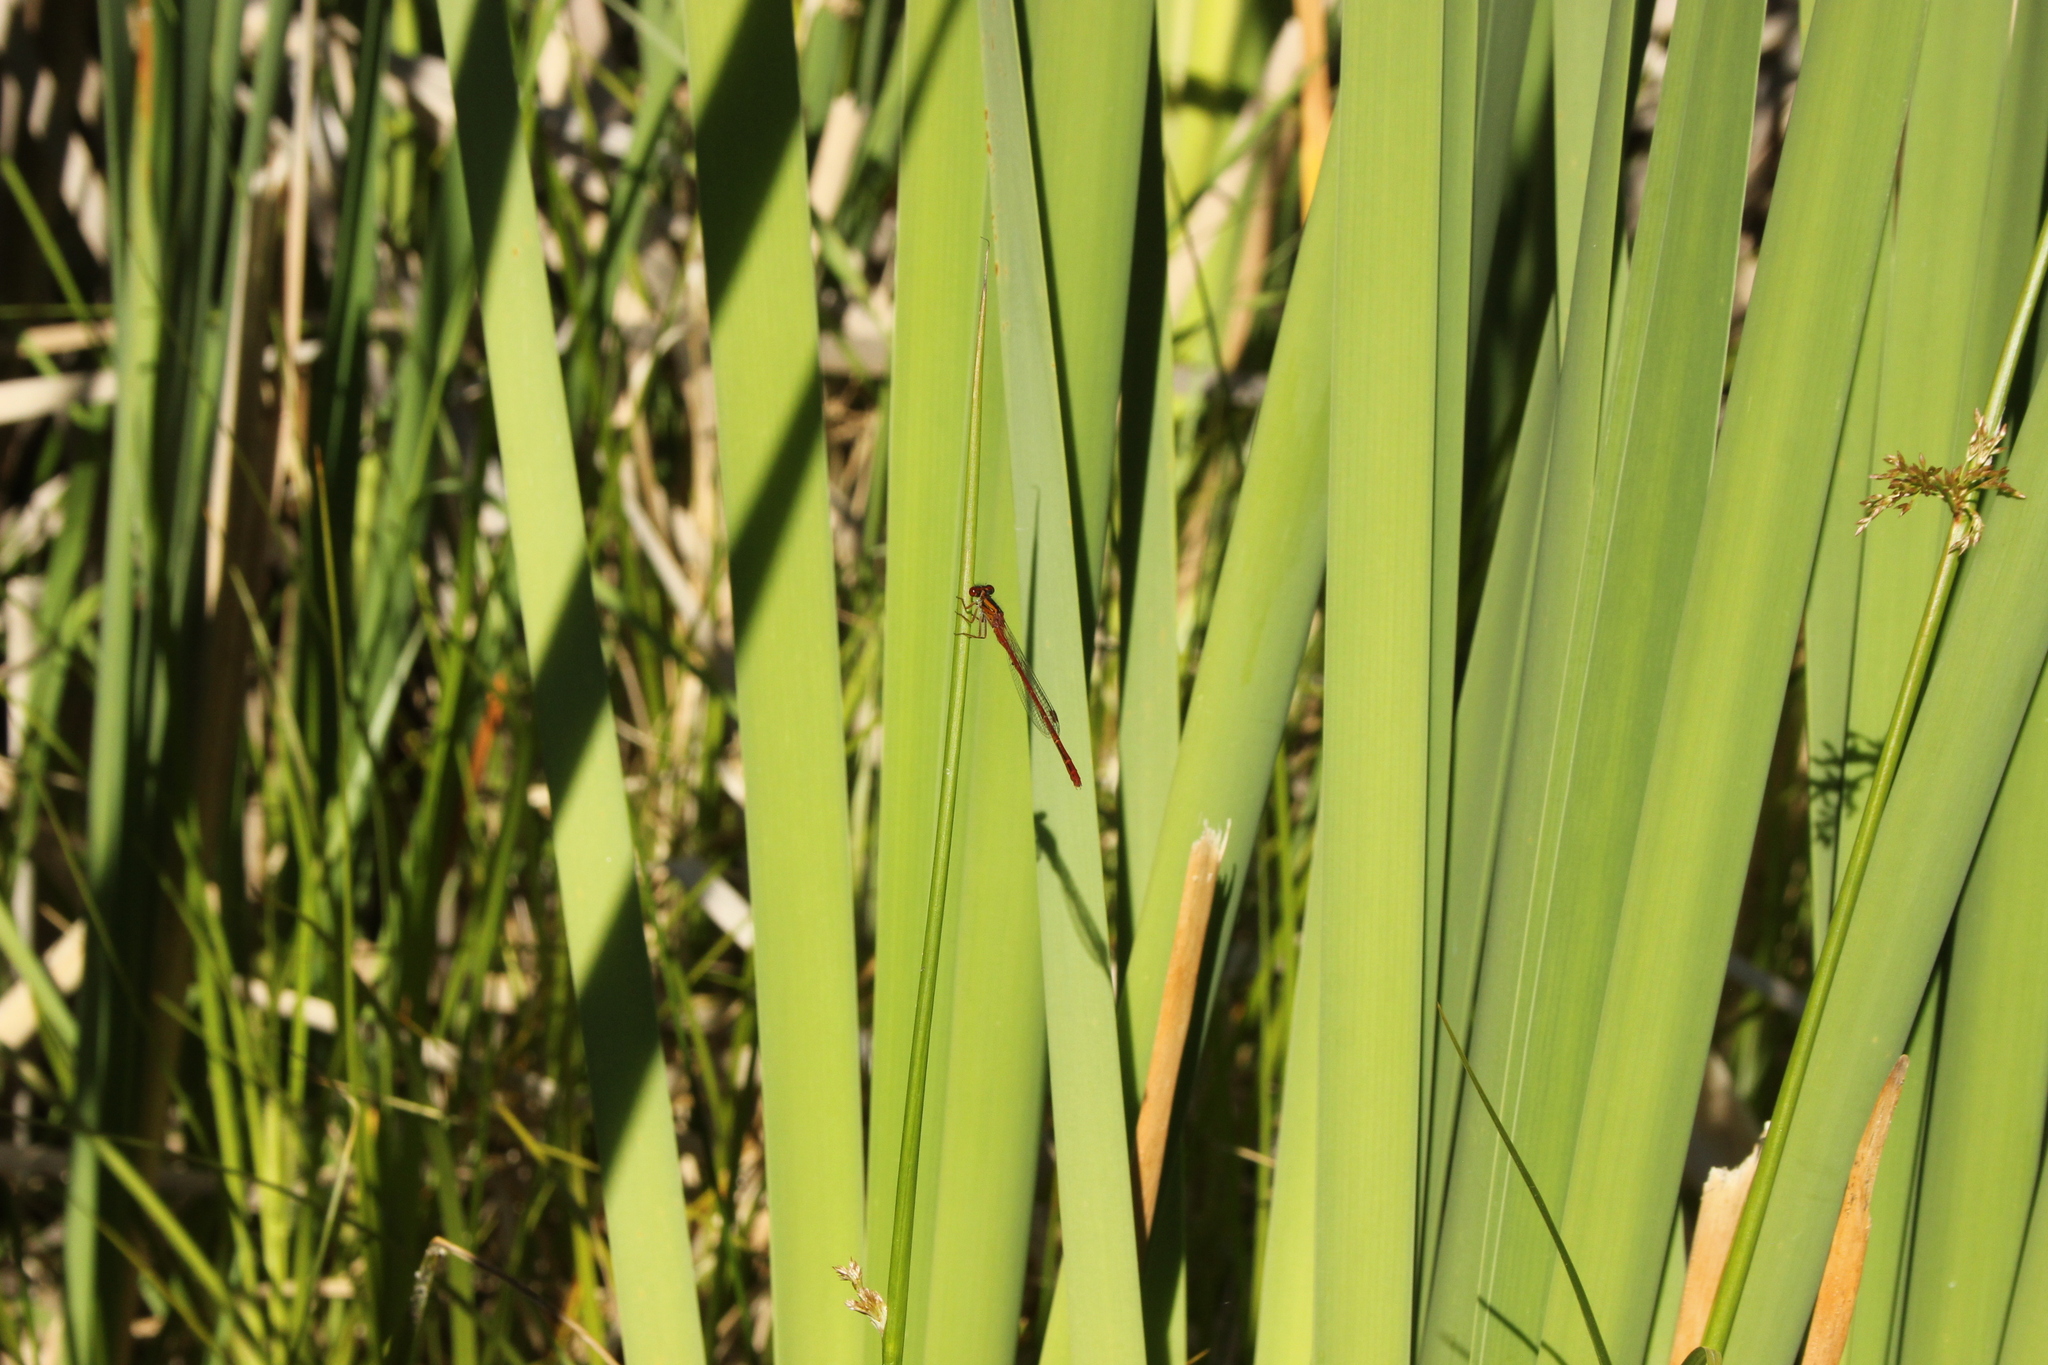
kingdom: Animalia
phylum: Arthropoda
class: Insecta
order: Odonata
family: Coenagrionidae
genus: Xanthocnemis
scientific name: Xanthocnemis zealandica
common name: Common redcoat damselfly
